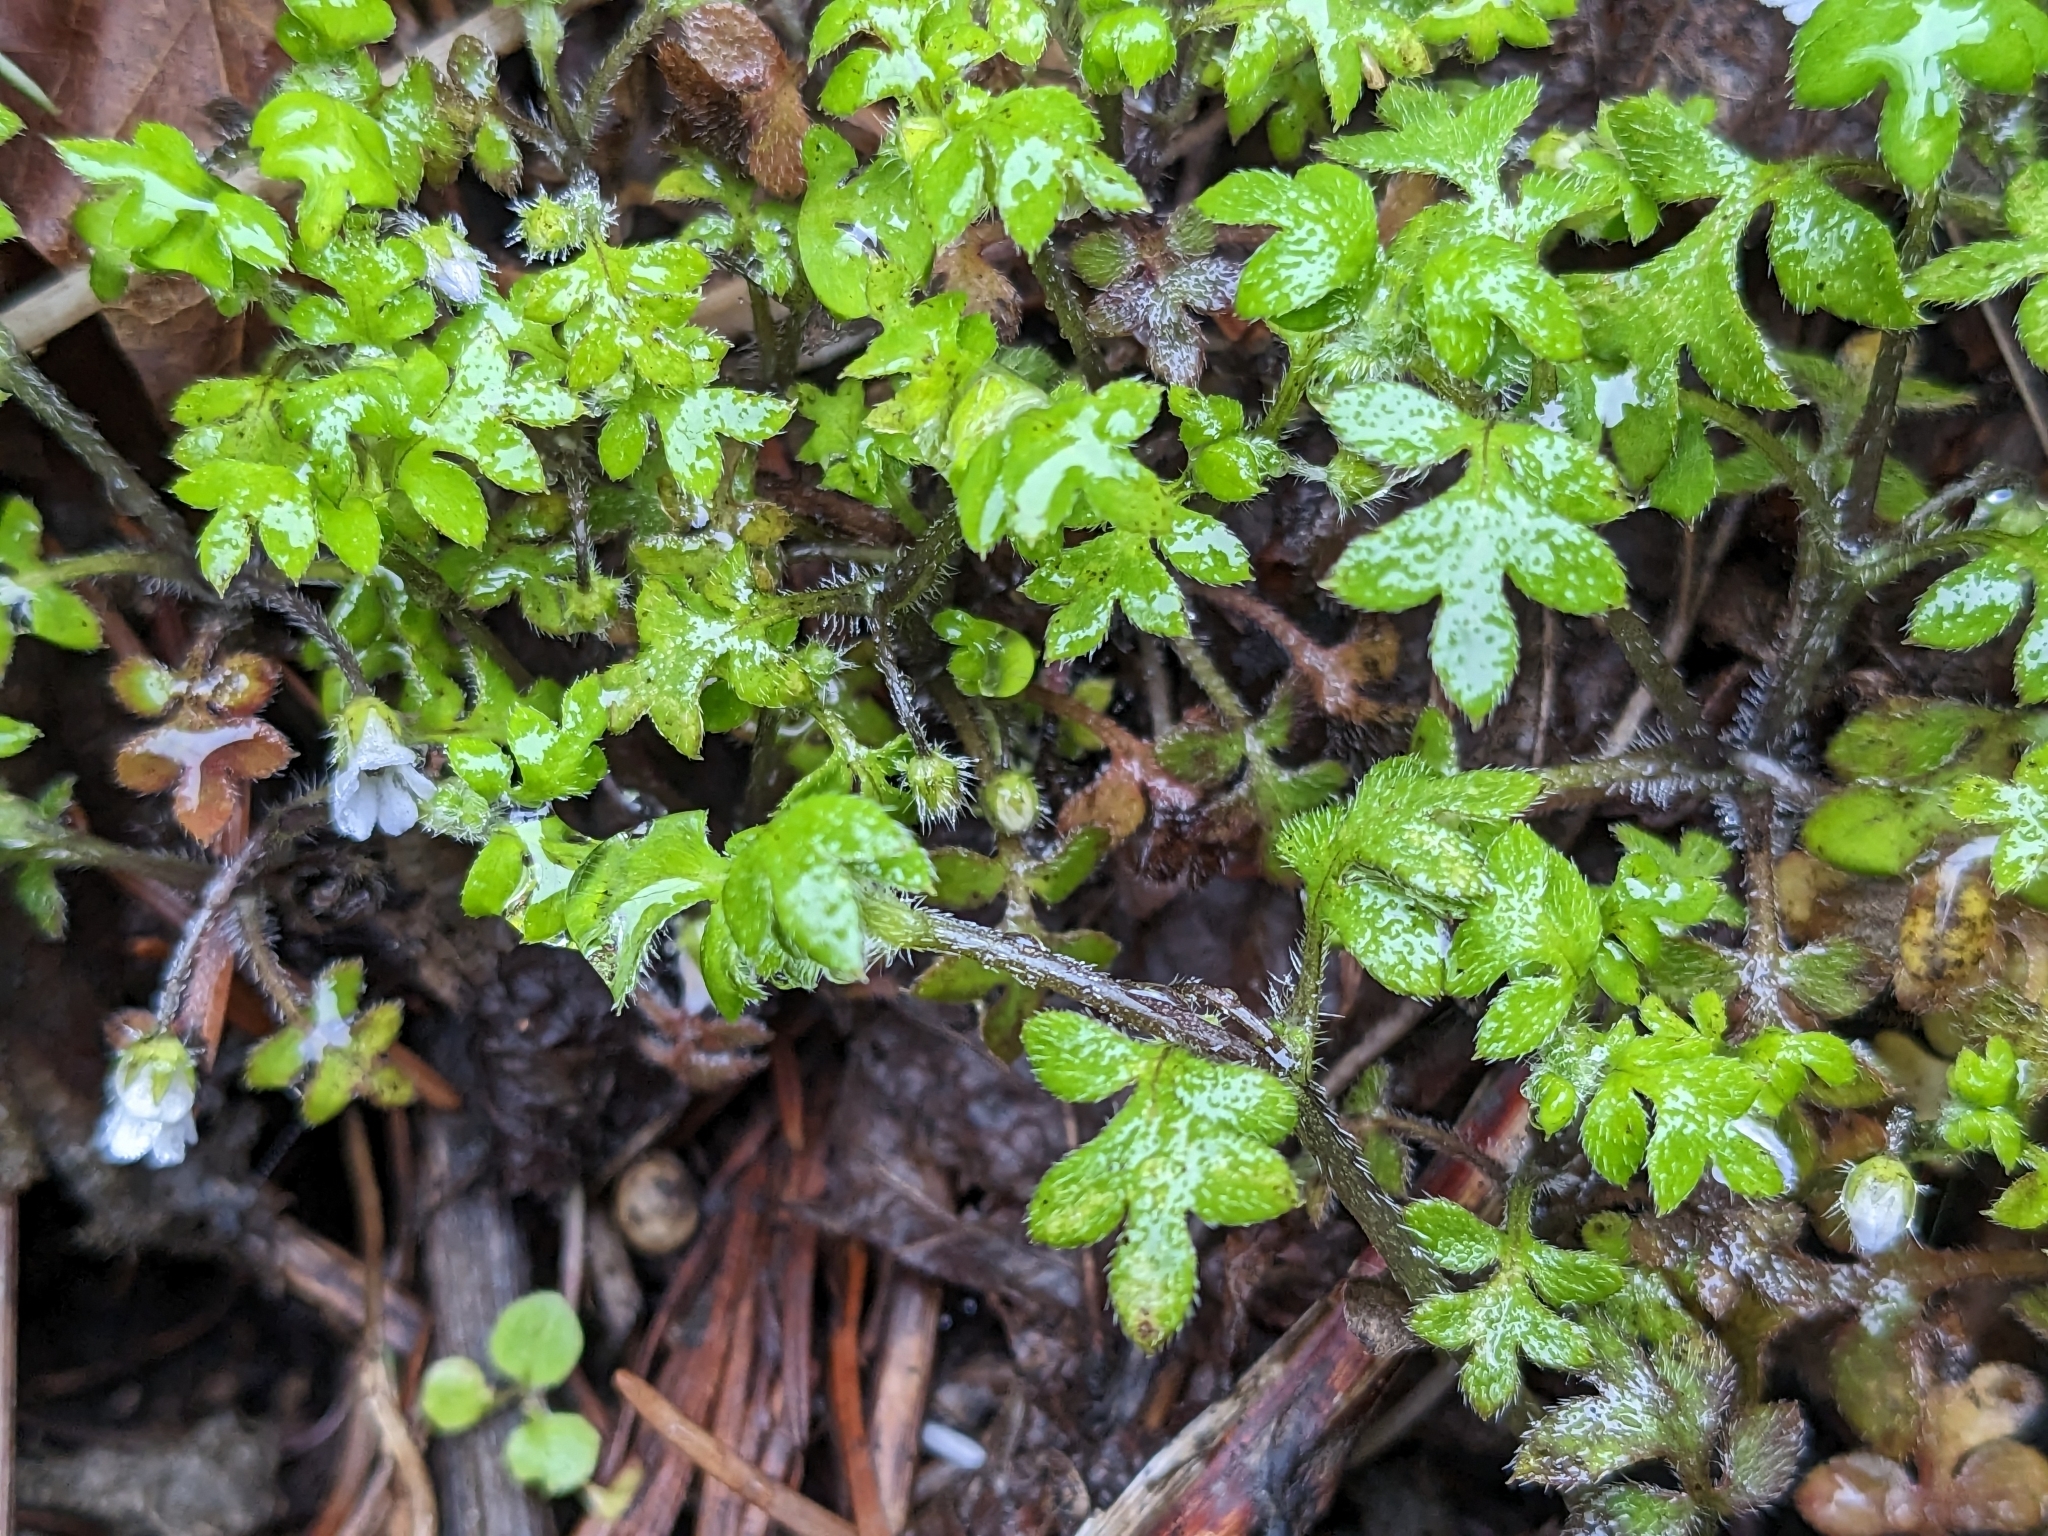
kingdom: Plantae
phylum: Tracheophyta
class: Magnoliopsida
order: Boraginales
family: Hydrophyllaceae
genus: Nemophila
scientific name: Nemophila parviflora
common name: Small-flowered baby-blue-eyes
